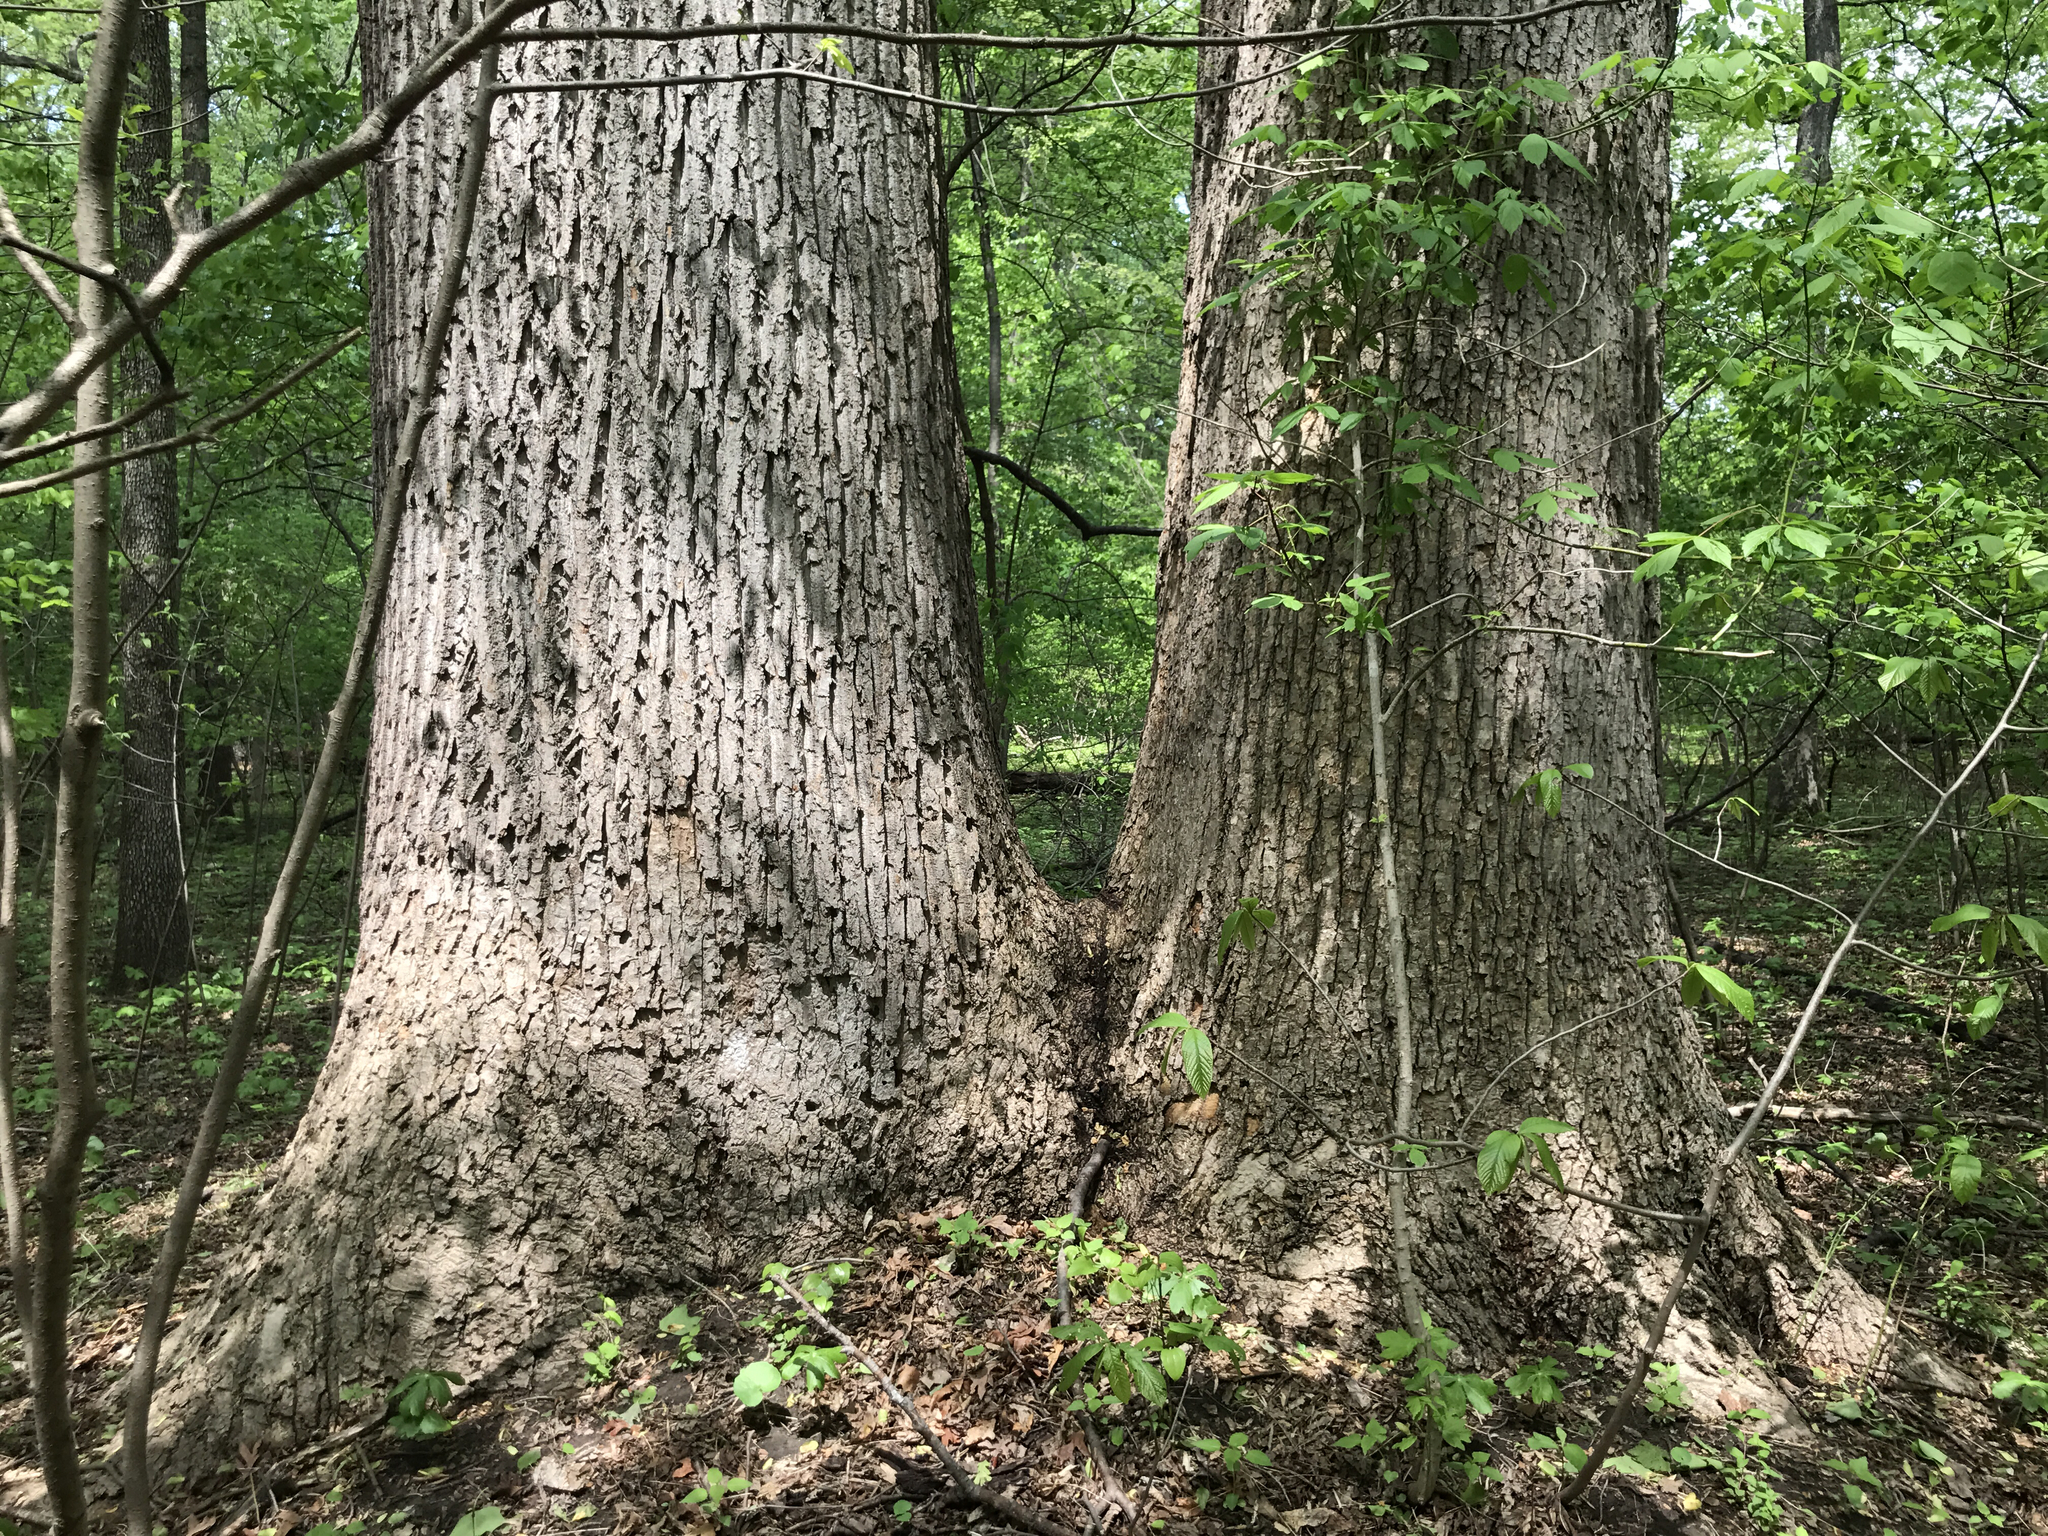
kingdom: Plantae
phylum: Tracheophyta
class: Magnoliopsida
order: Magnoliales
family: Magnoliaceae
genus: Liriodendron
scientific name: Liriodendron tulipifera
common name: Tulip tree
